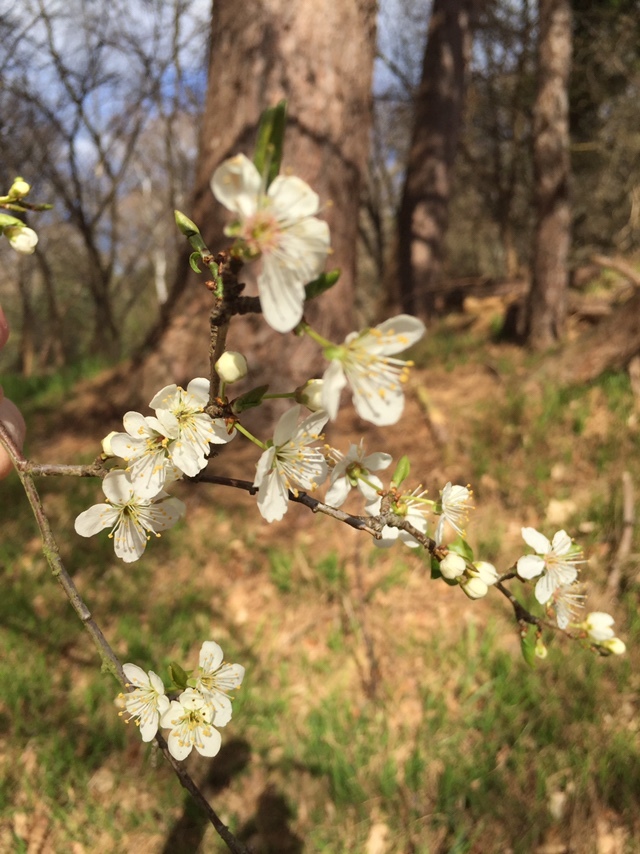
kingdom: Plantae
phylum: Tracheophyta
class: Magnoliopsida
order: Rosales
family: Rosaceae
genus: Prunus
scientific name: Prunus cerasifera
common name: Cherry plum
